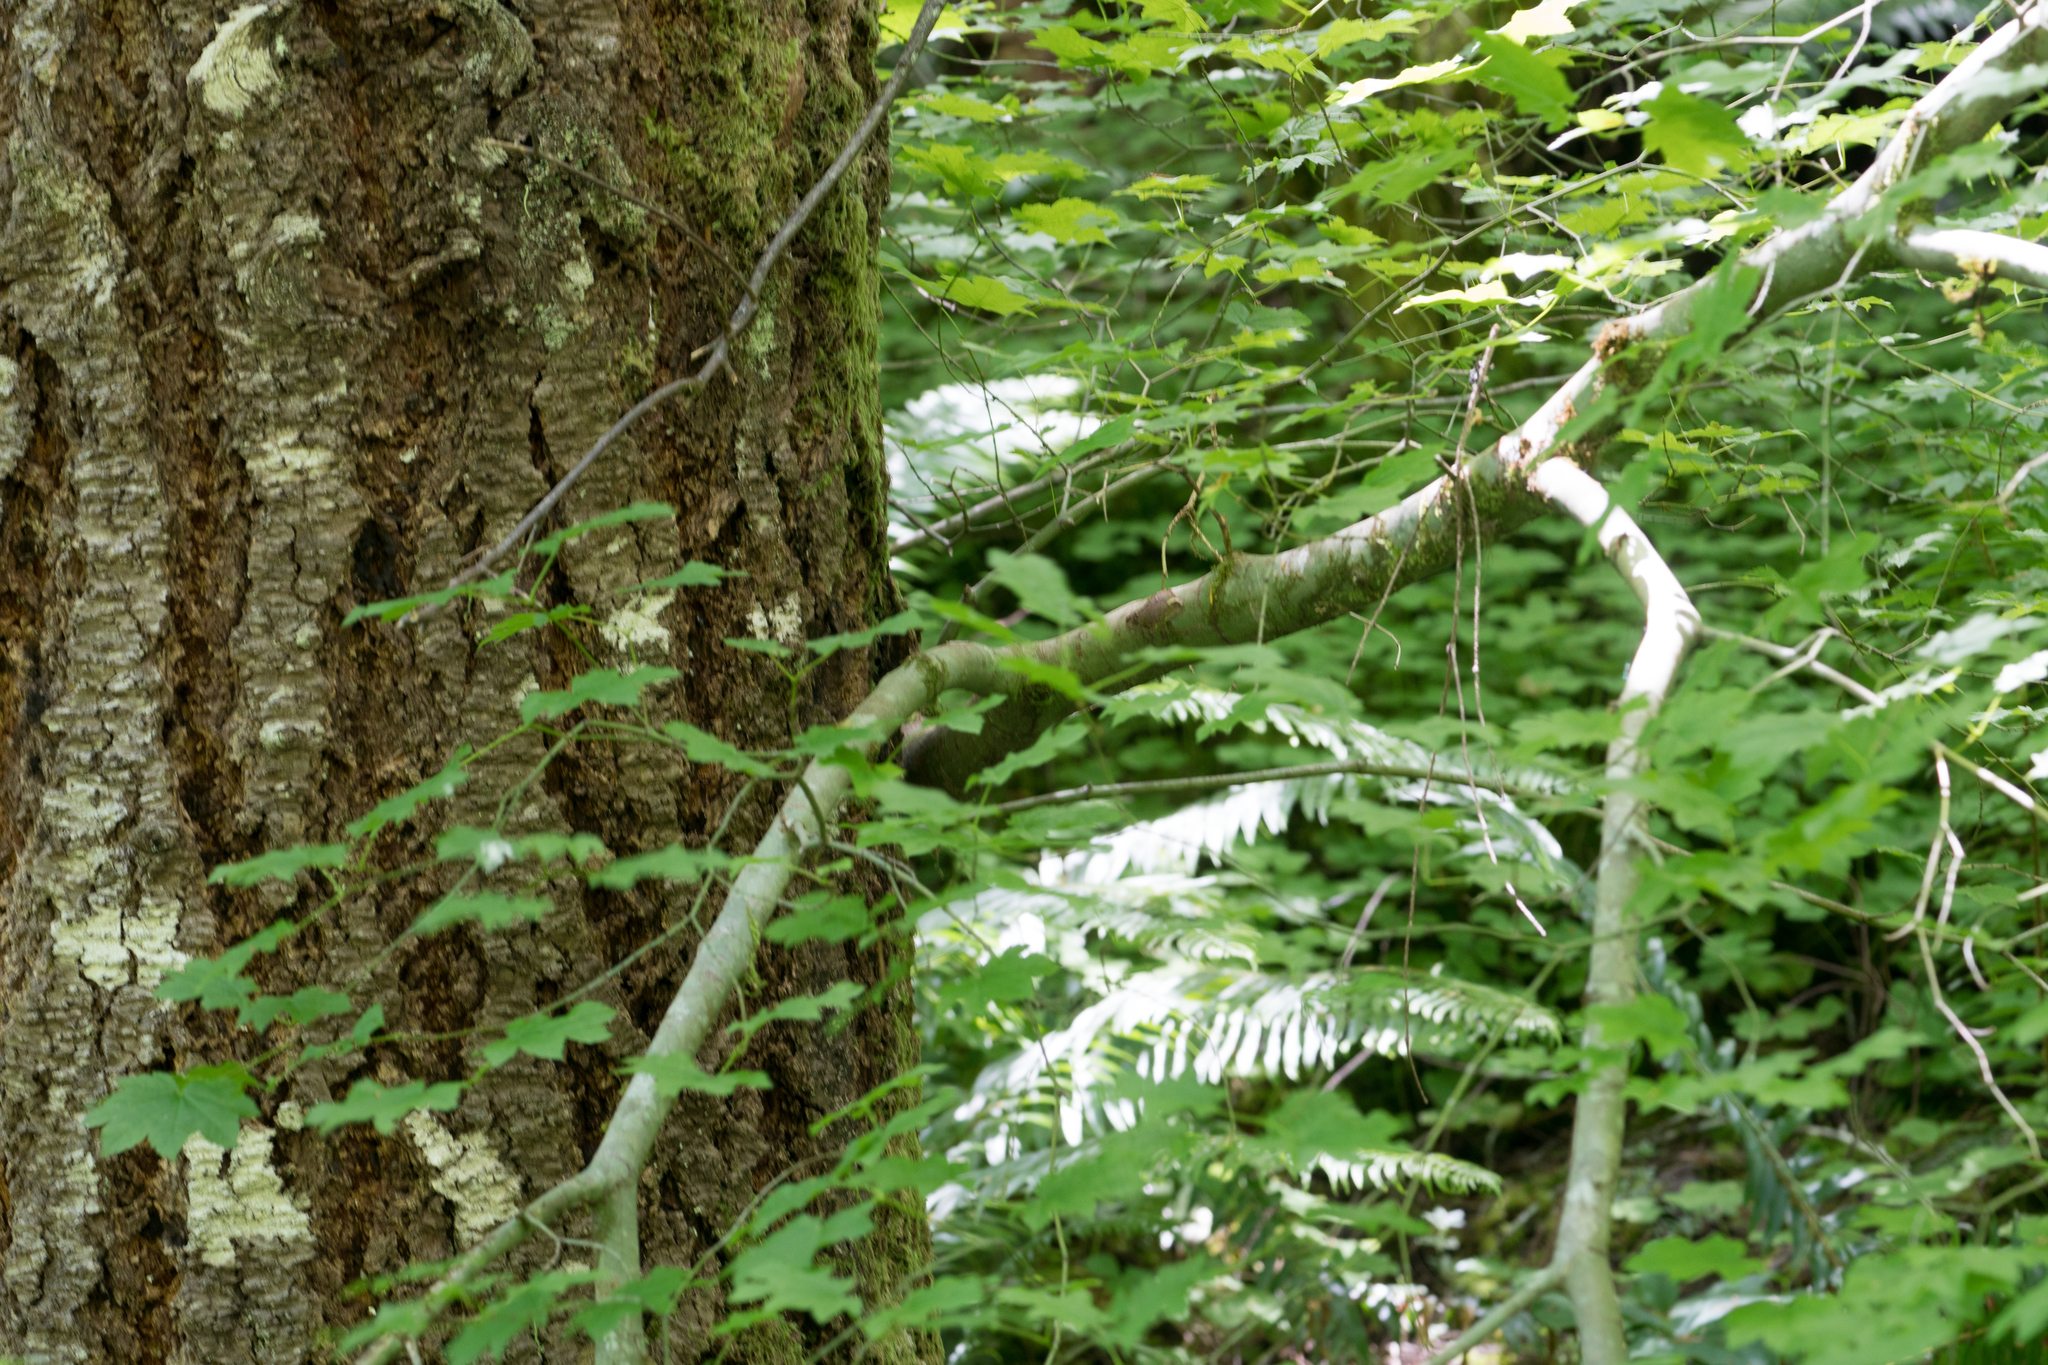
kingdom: Plantae
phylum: Tracheophyta
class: Magnoliopsida
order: Sapindales
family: Sapindaceae
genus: Acer
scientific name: Acer circinatum
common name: Vine maple
